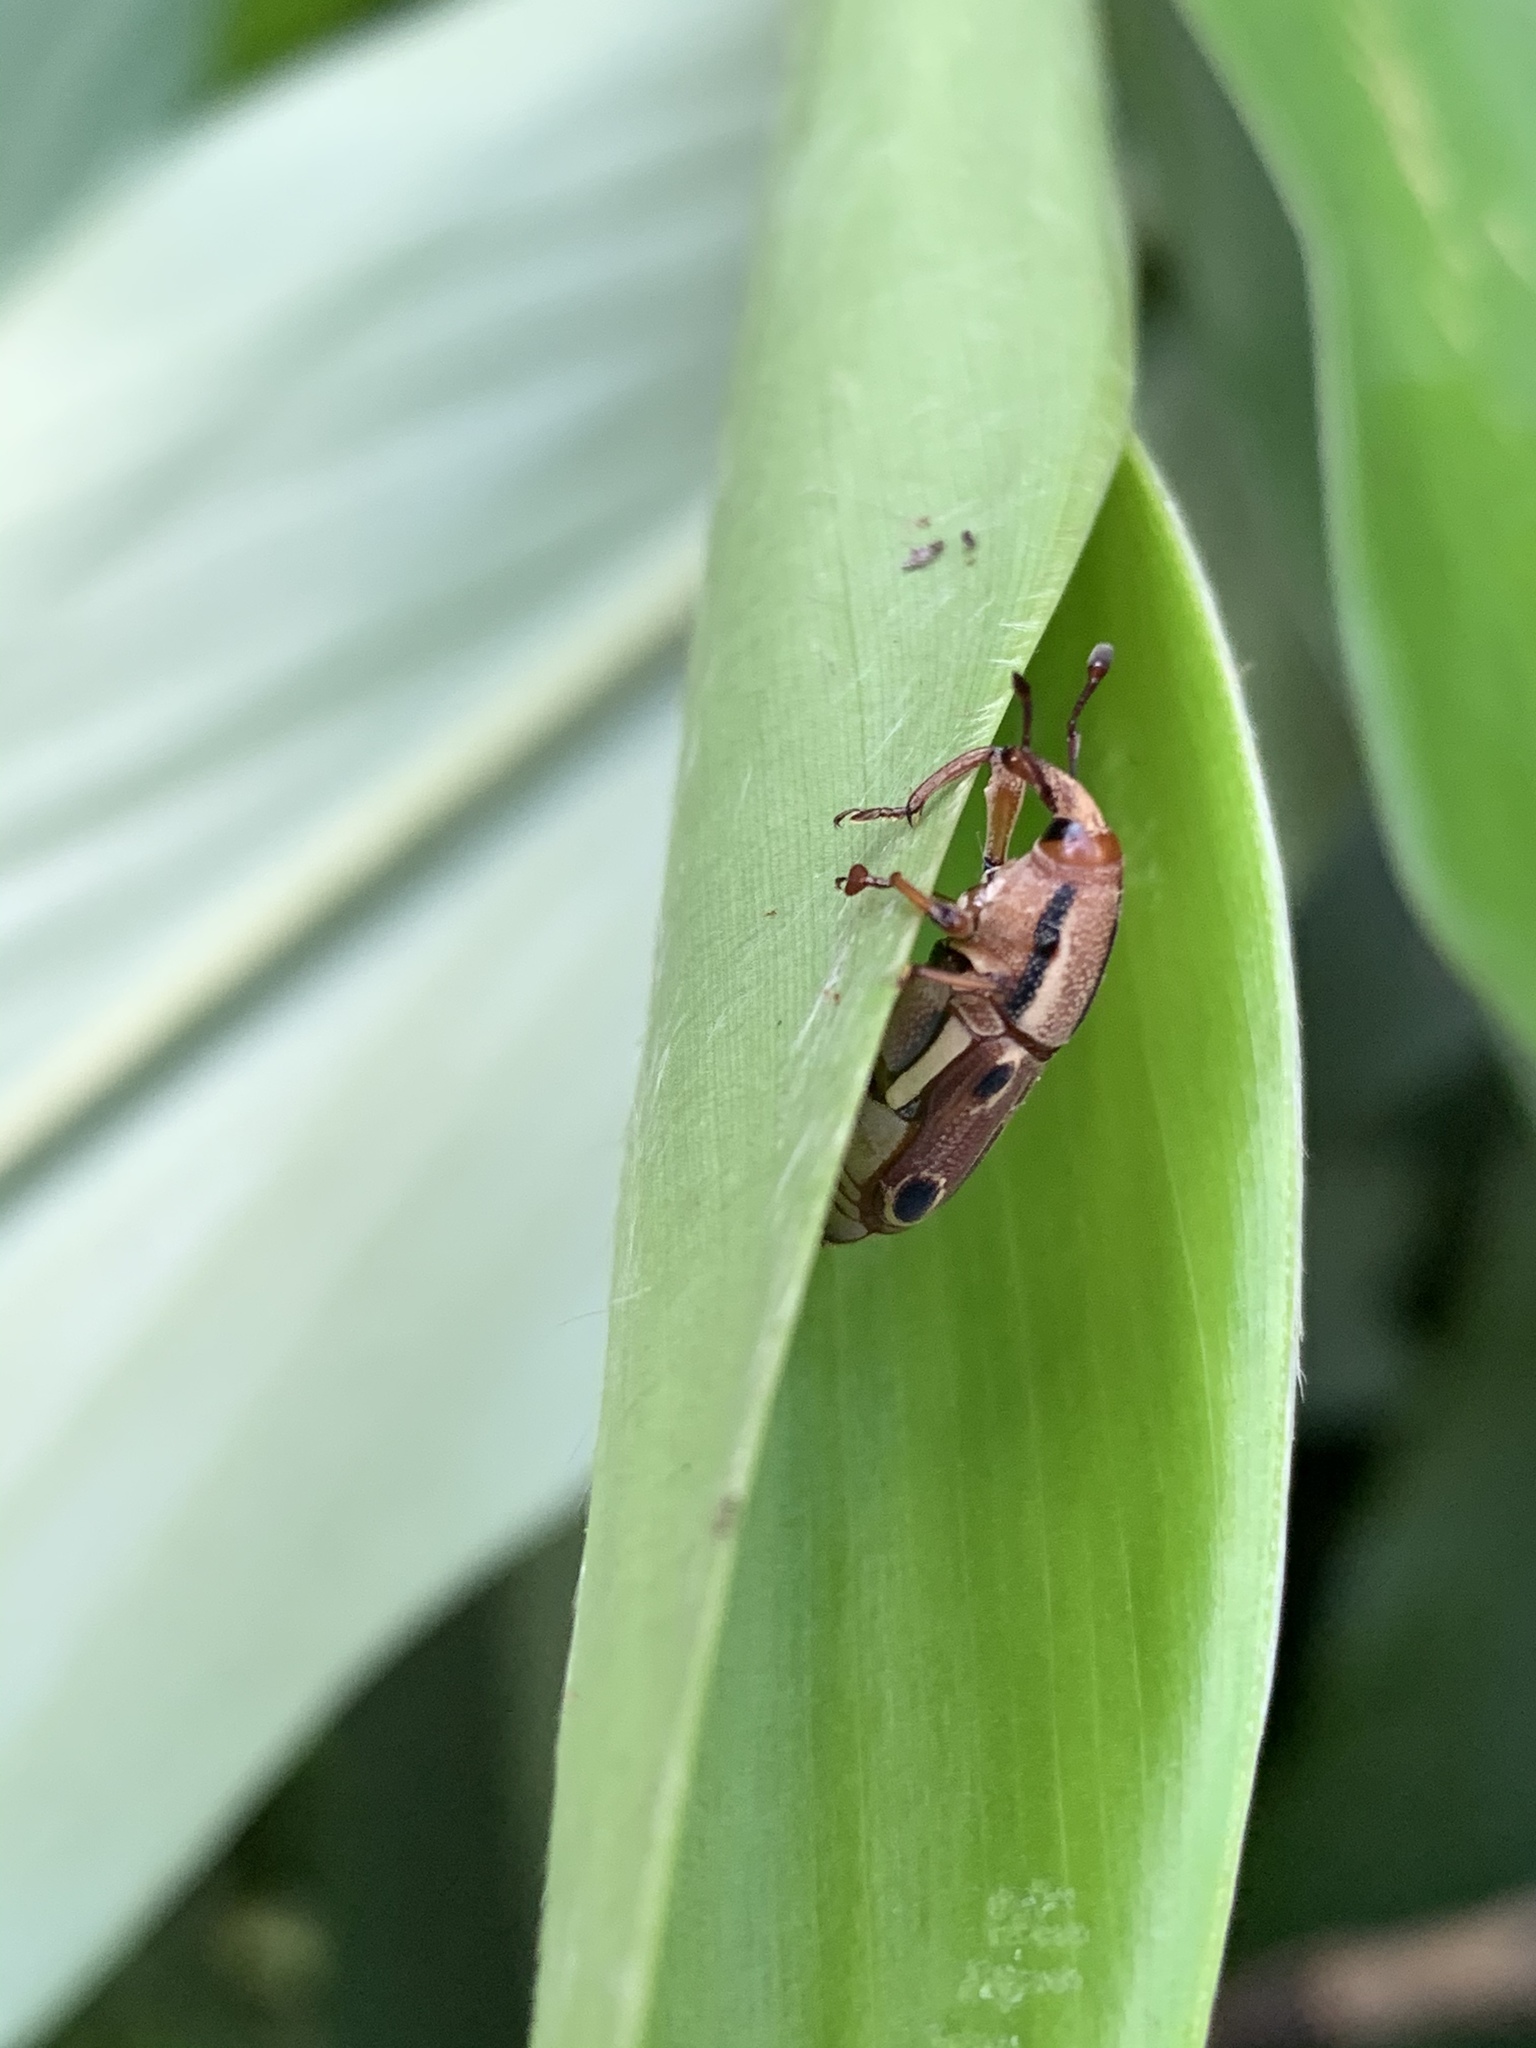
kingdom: Animalia
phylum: Arthropoda
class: Insecta
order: Coleoptera
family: Dryophthoridae
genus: Sphenocorynes
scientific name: Sphenocorynes kosempoensis
